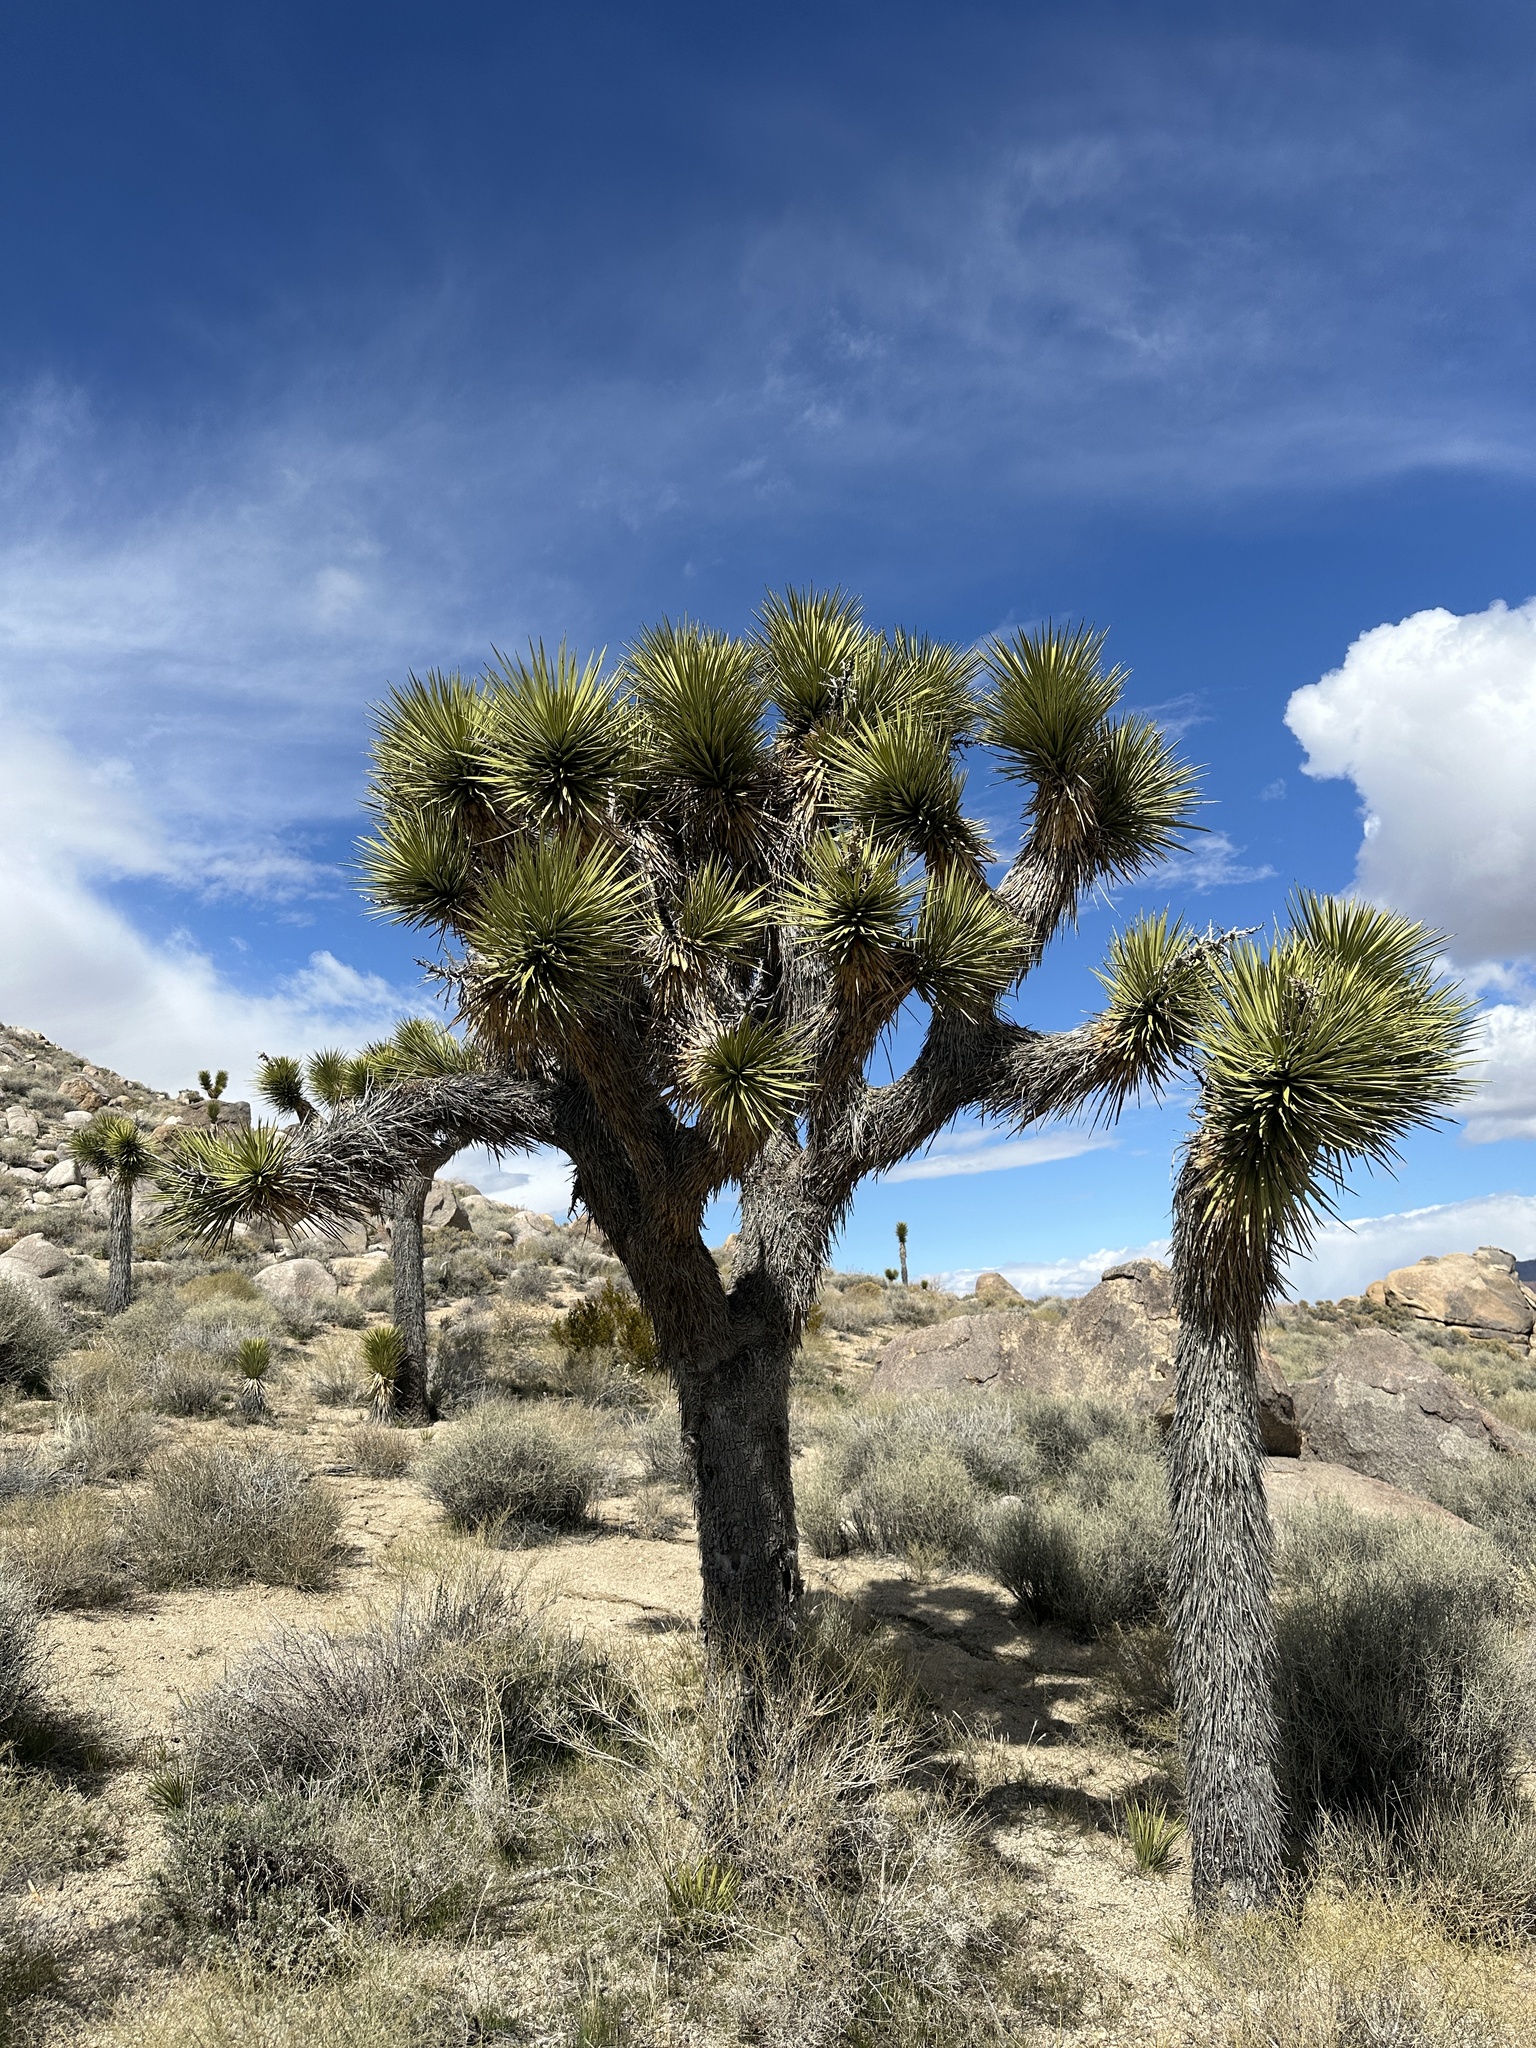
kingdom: Plantae
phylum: Tracheophyta
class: Liliopsida
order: Asparagales
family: Asparagaceae
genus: Yucca
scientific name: Yucca brevifolia
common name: Joshua tree
